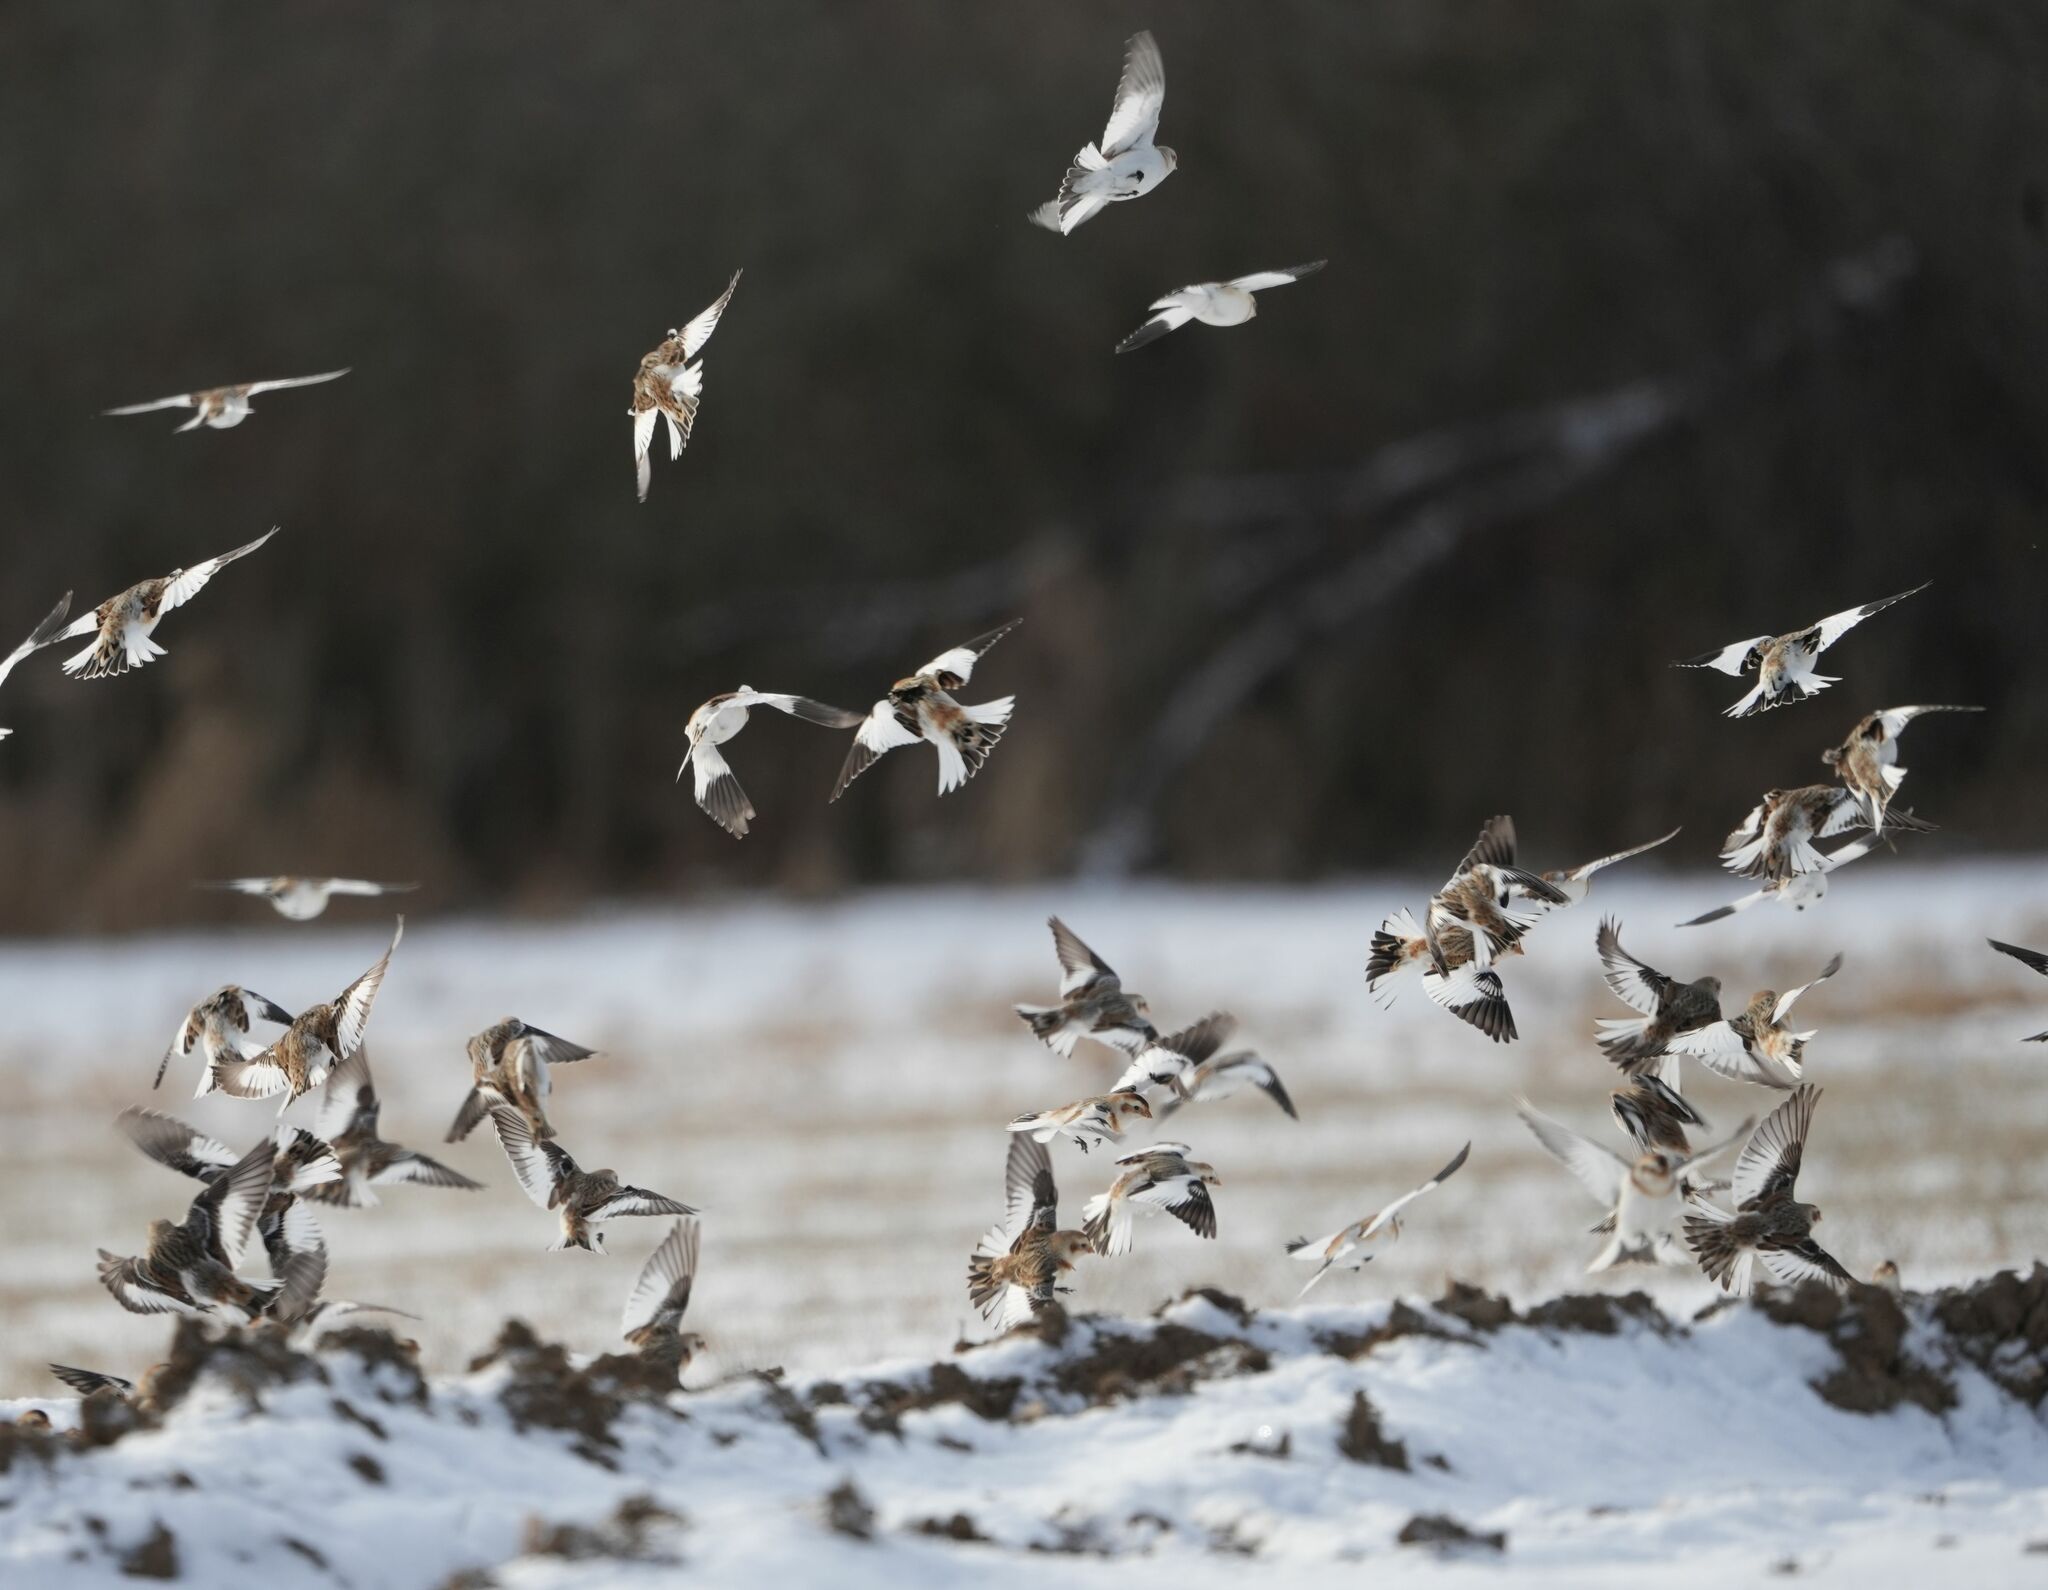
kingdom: Animalia
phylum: Chordata
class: Aves
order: Passeriformes
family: Calcariidae
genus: Plectrophenax
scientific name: Plectrophenax nivalis
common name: Snow bunting
